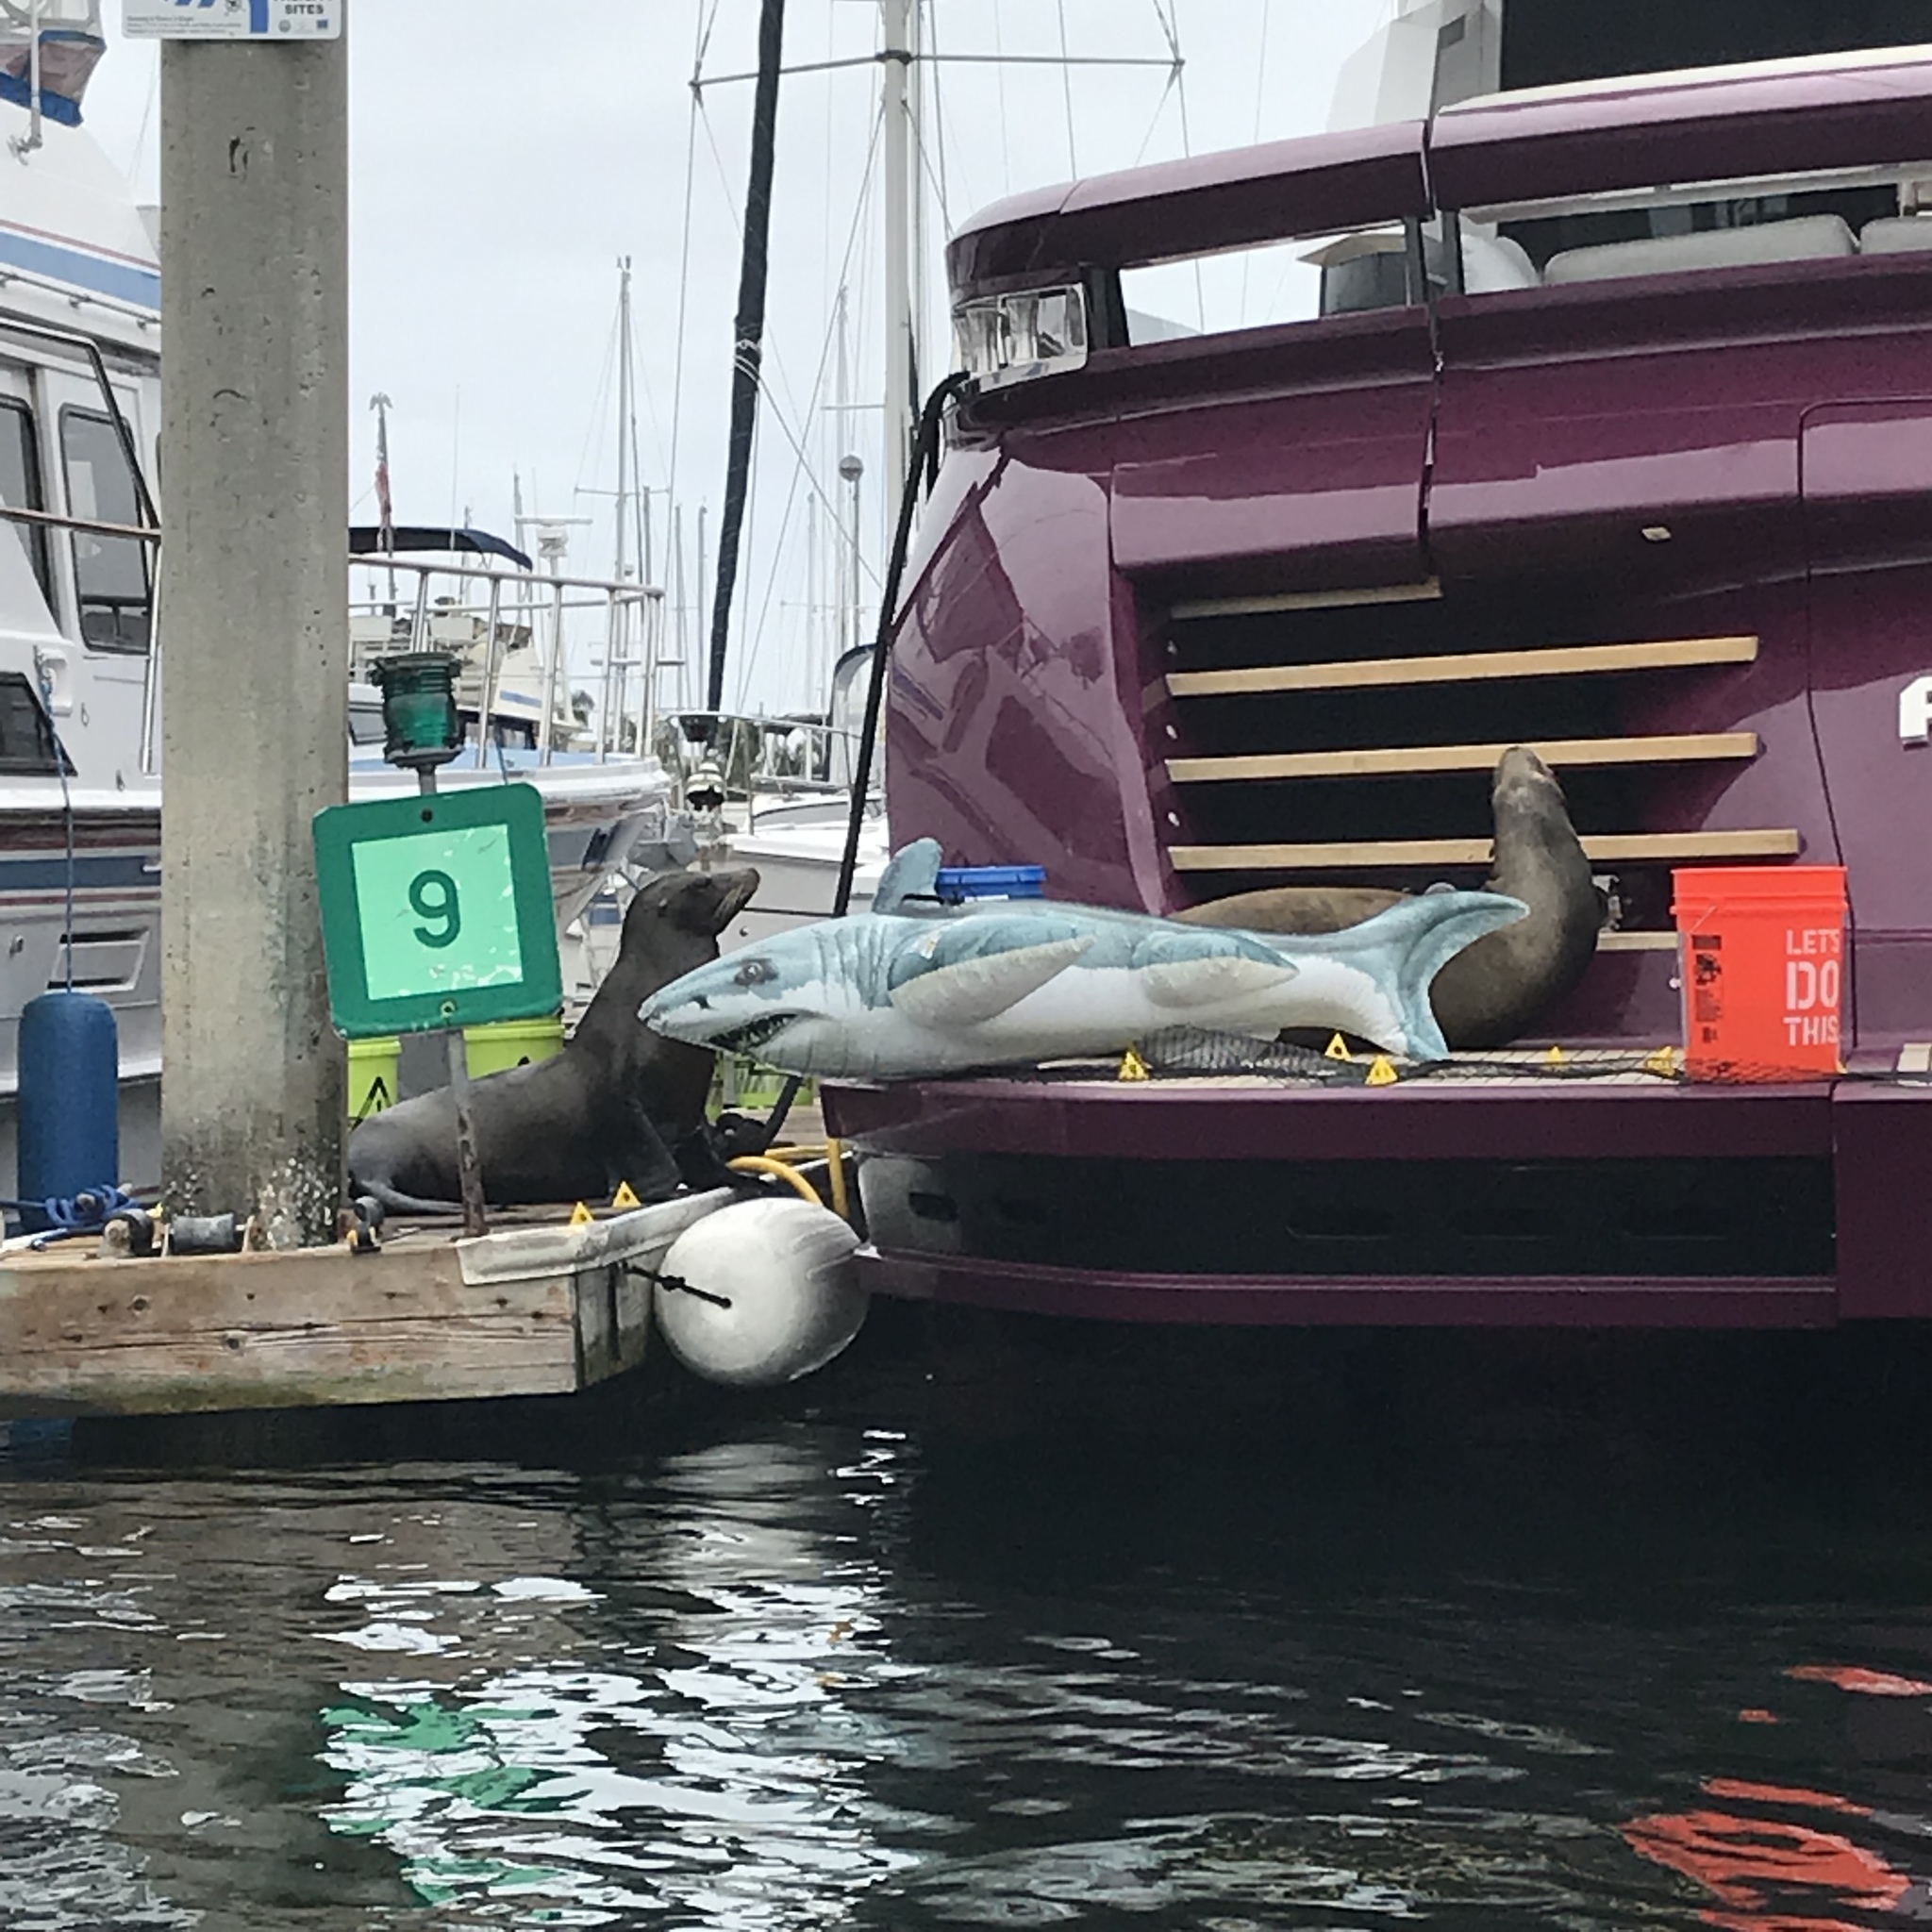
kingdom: Animalia
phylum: Chordata
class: Mammalia
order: Carnivora
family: Otariidae
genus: Zalophus
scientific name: Zalophus californianus
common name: California sea lion
